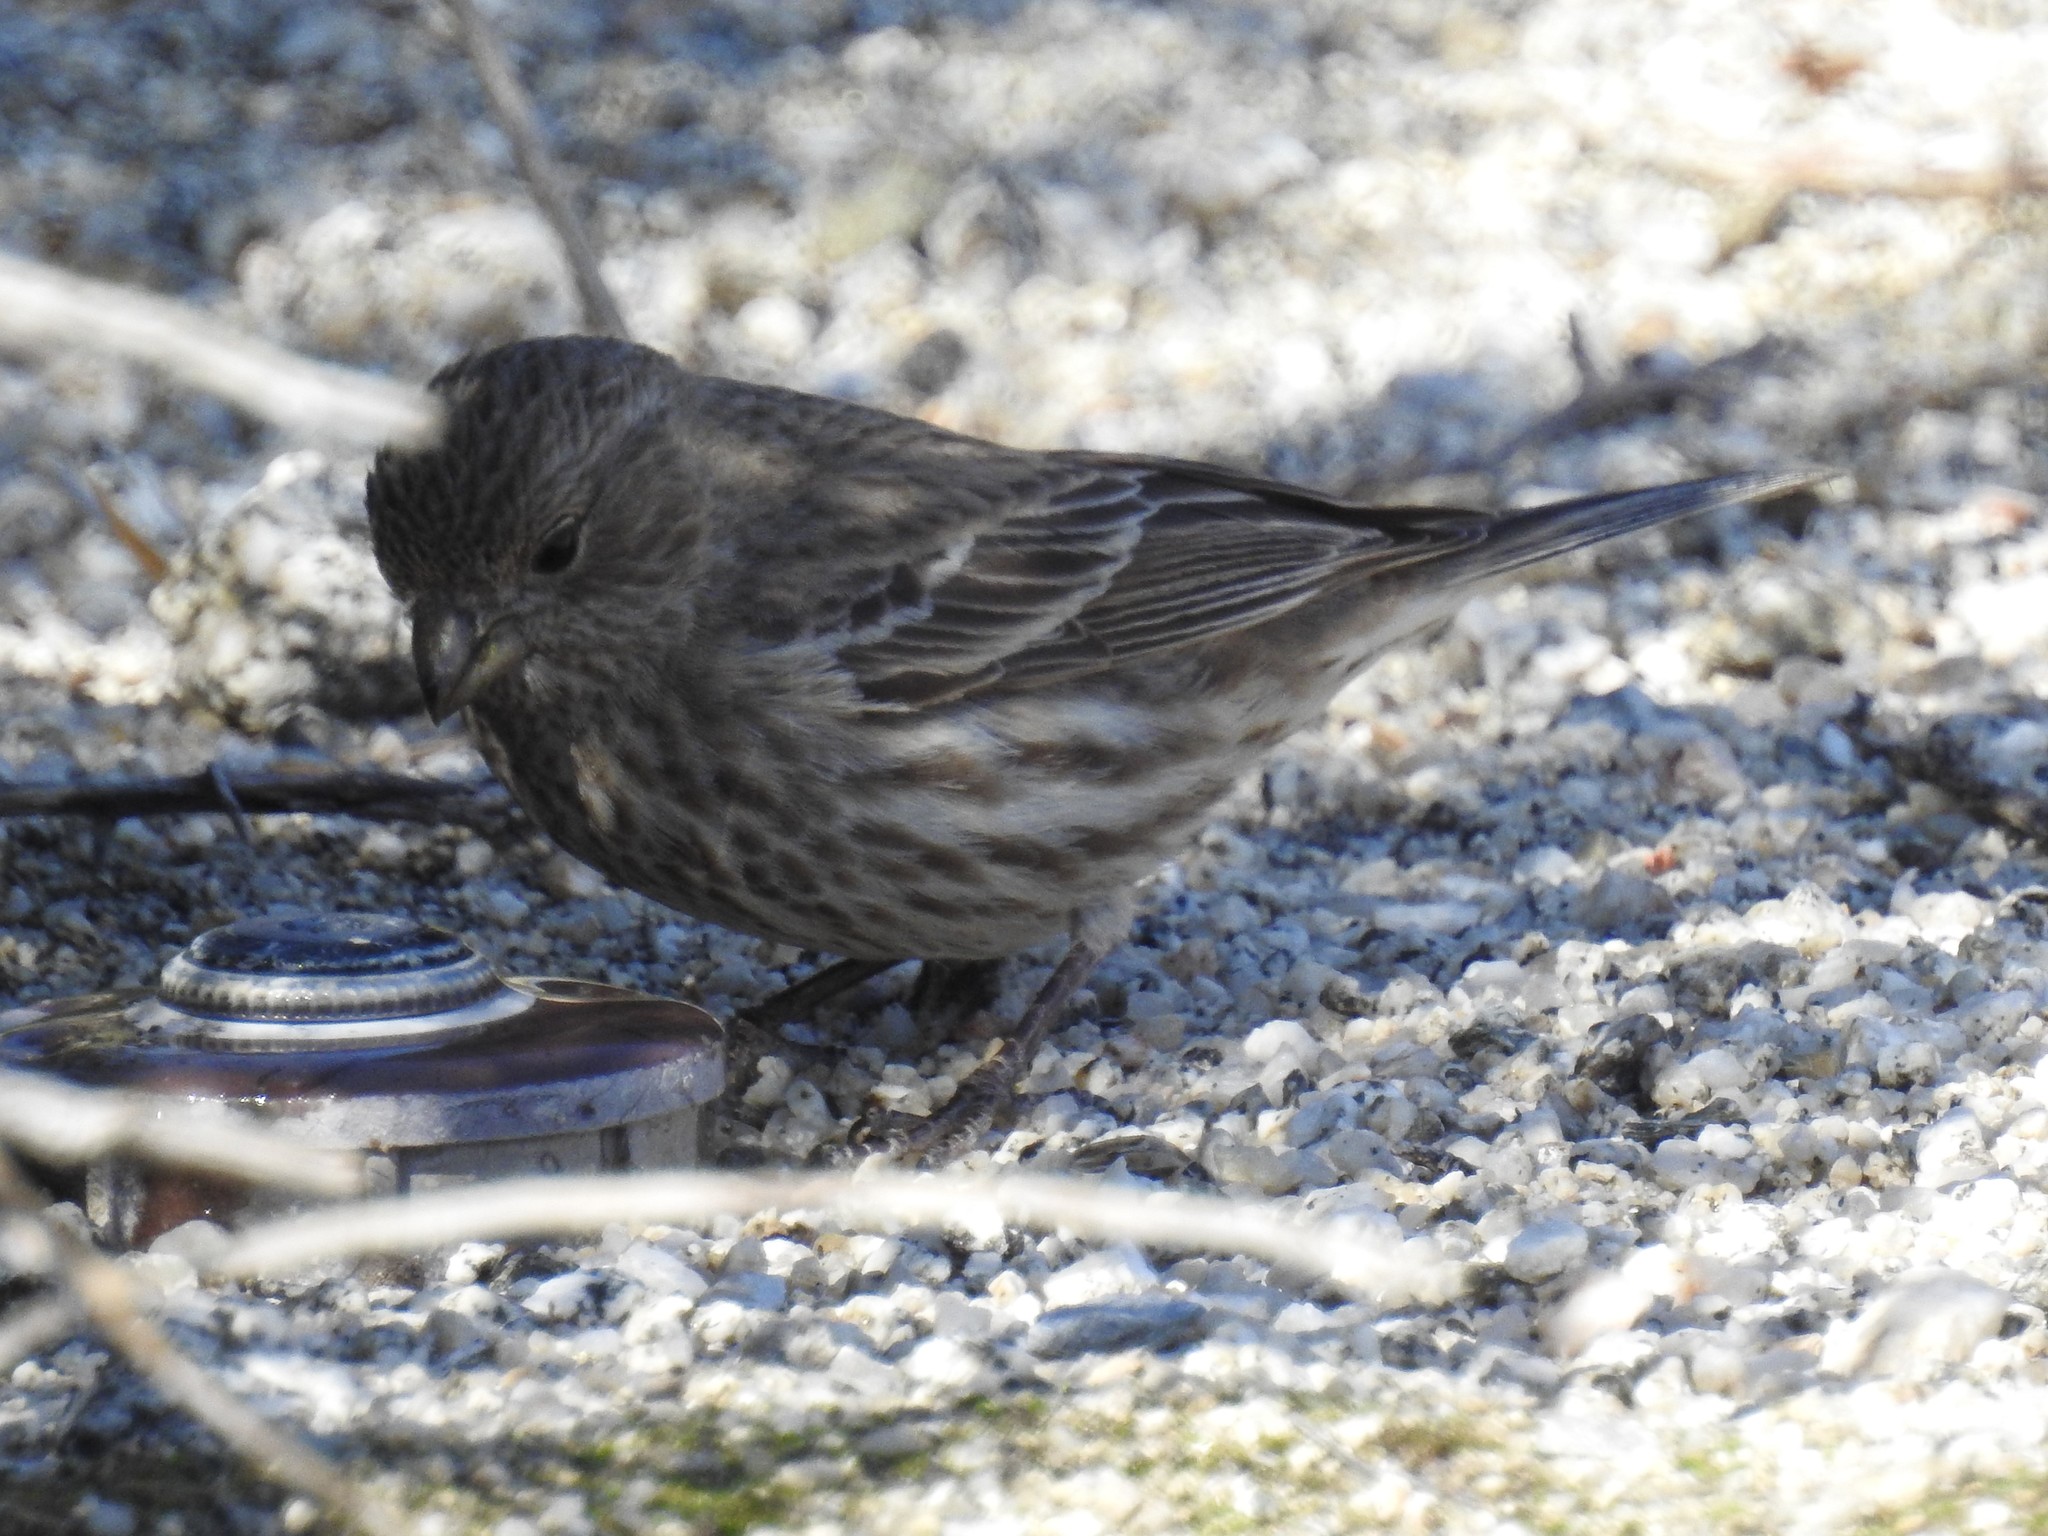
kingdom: Animalia
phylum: Chordata
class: Aves
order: Passeriformes
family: Fringillidae
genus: Haemorhous
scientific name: Haemorhous mexicanus
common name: House finch
